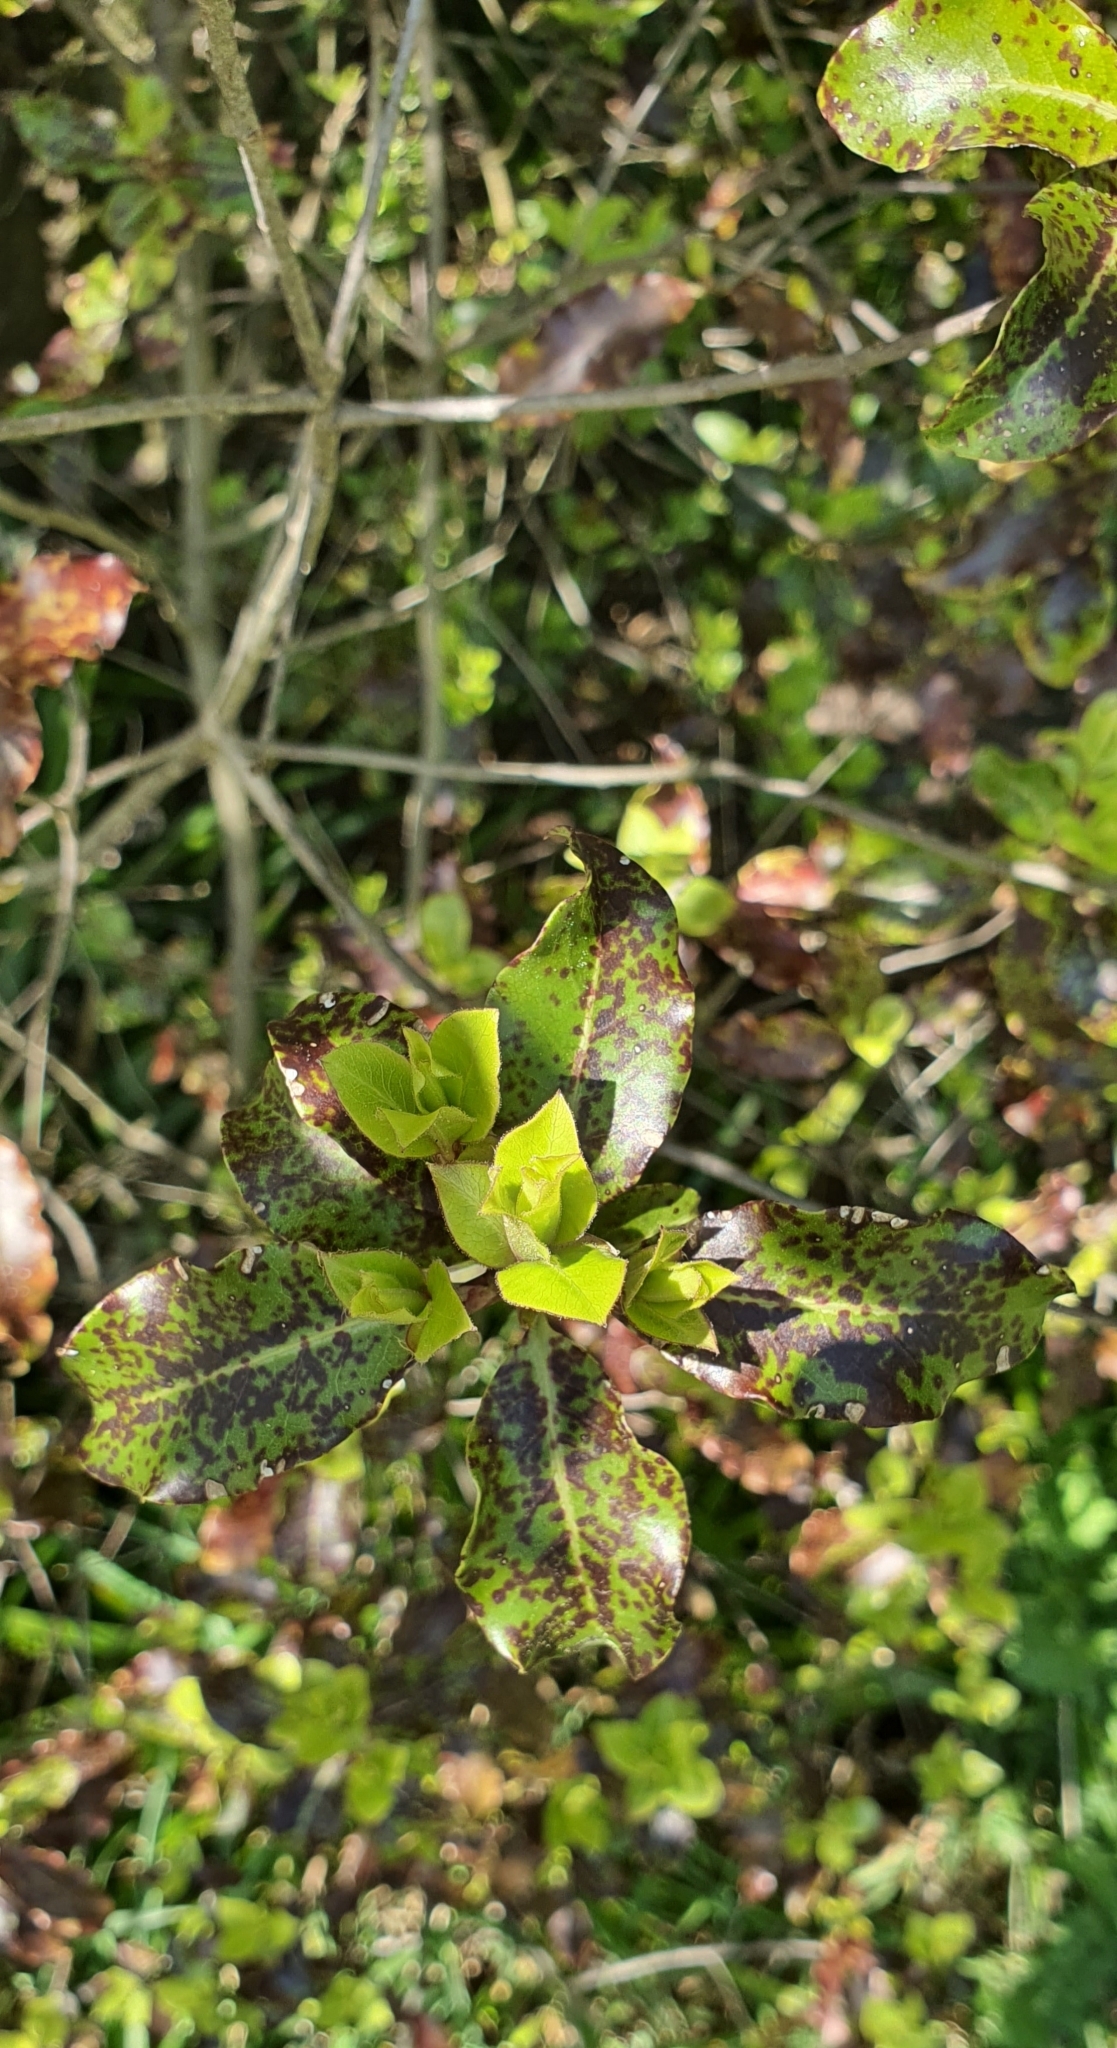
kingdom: Plantae
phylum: Tracheophyta
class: Magnoliopsida
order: Apiales
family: Pittosporaceae
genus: Pittosporum
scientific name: Pittosporum tenuifolium
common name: Kohuhu
